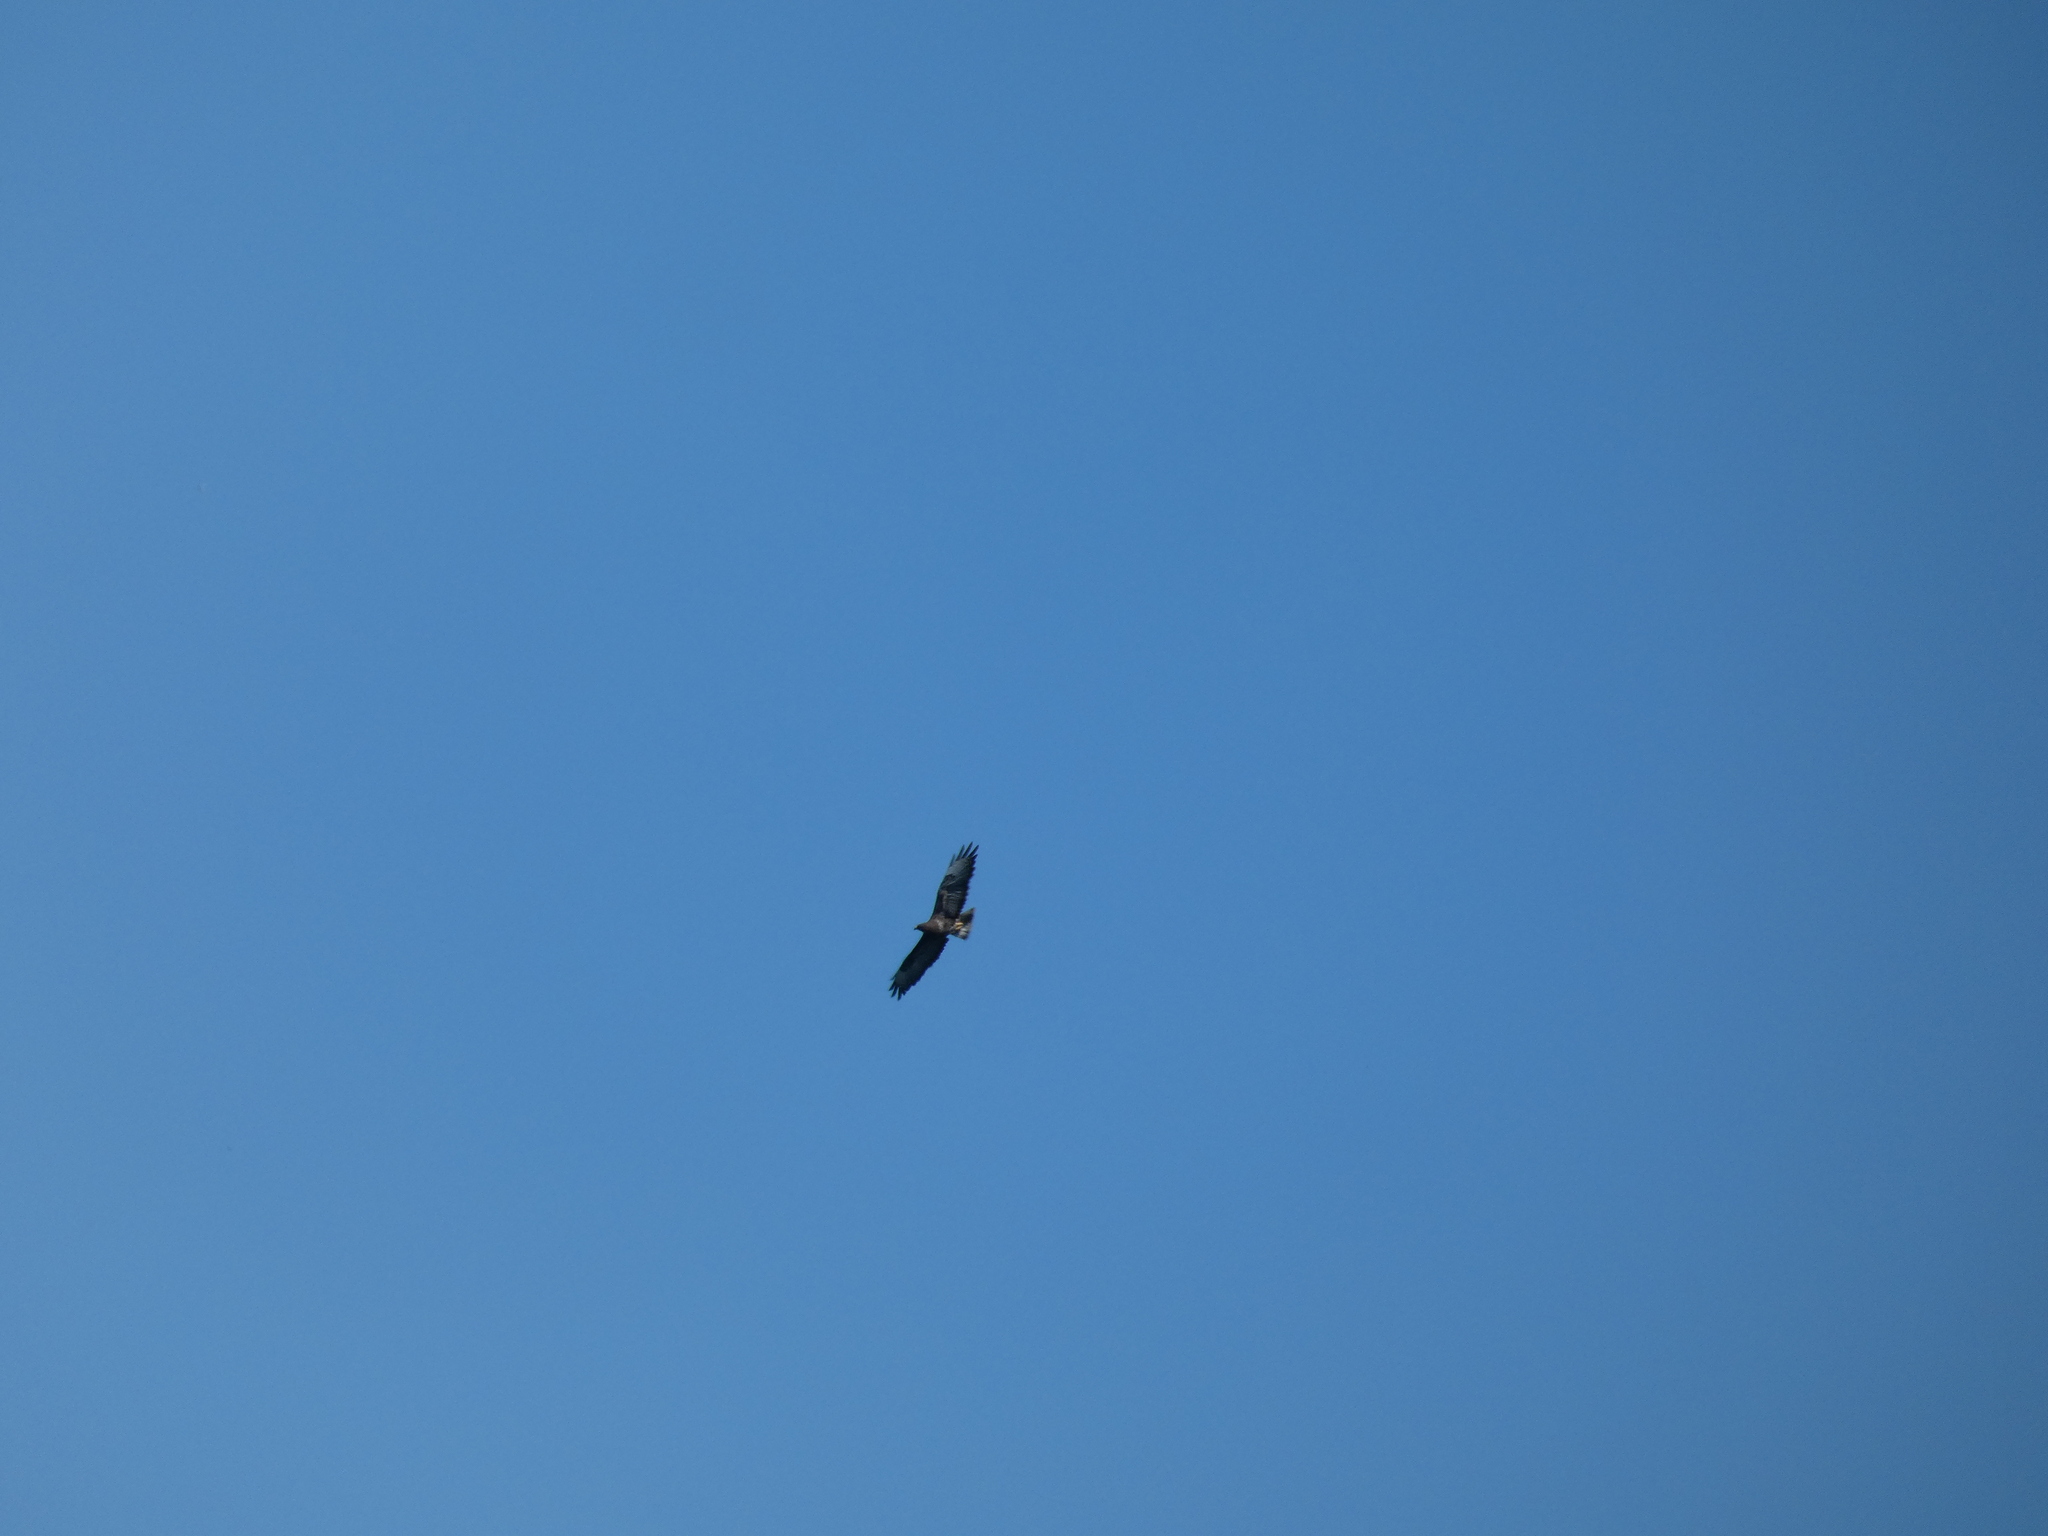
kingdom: Animalia
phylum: Chordata
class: Aves
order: Accipitriformes
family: Accipitridae
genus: Buteo
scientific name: Buteo buteo
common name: Common buzzard
